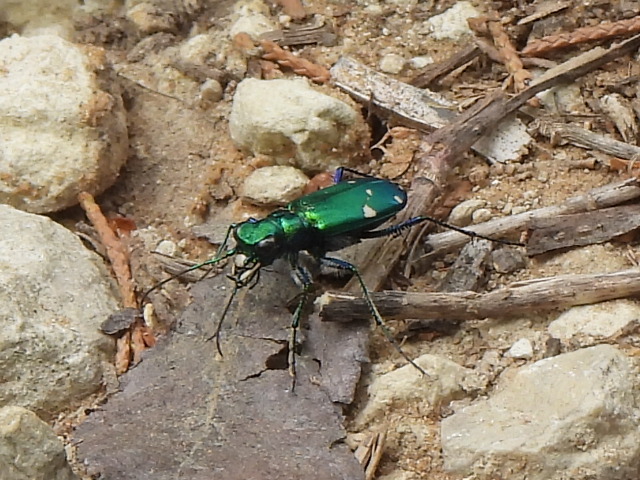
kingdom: Animalia
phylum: Arthropoda
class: Insecta
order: Coleoptera
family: Carabidae
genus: Cicindela
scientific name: Cicindela sexguttata
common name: Six-spotted tiger beetle
